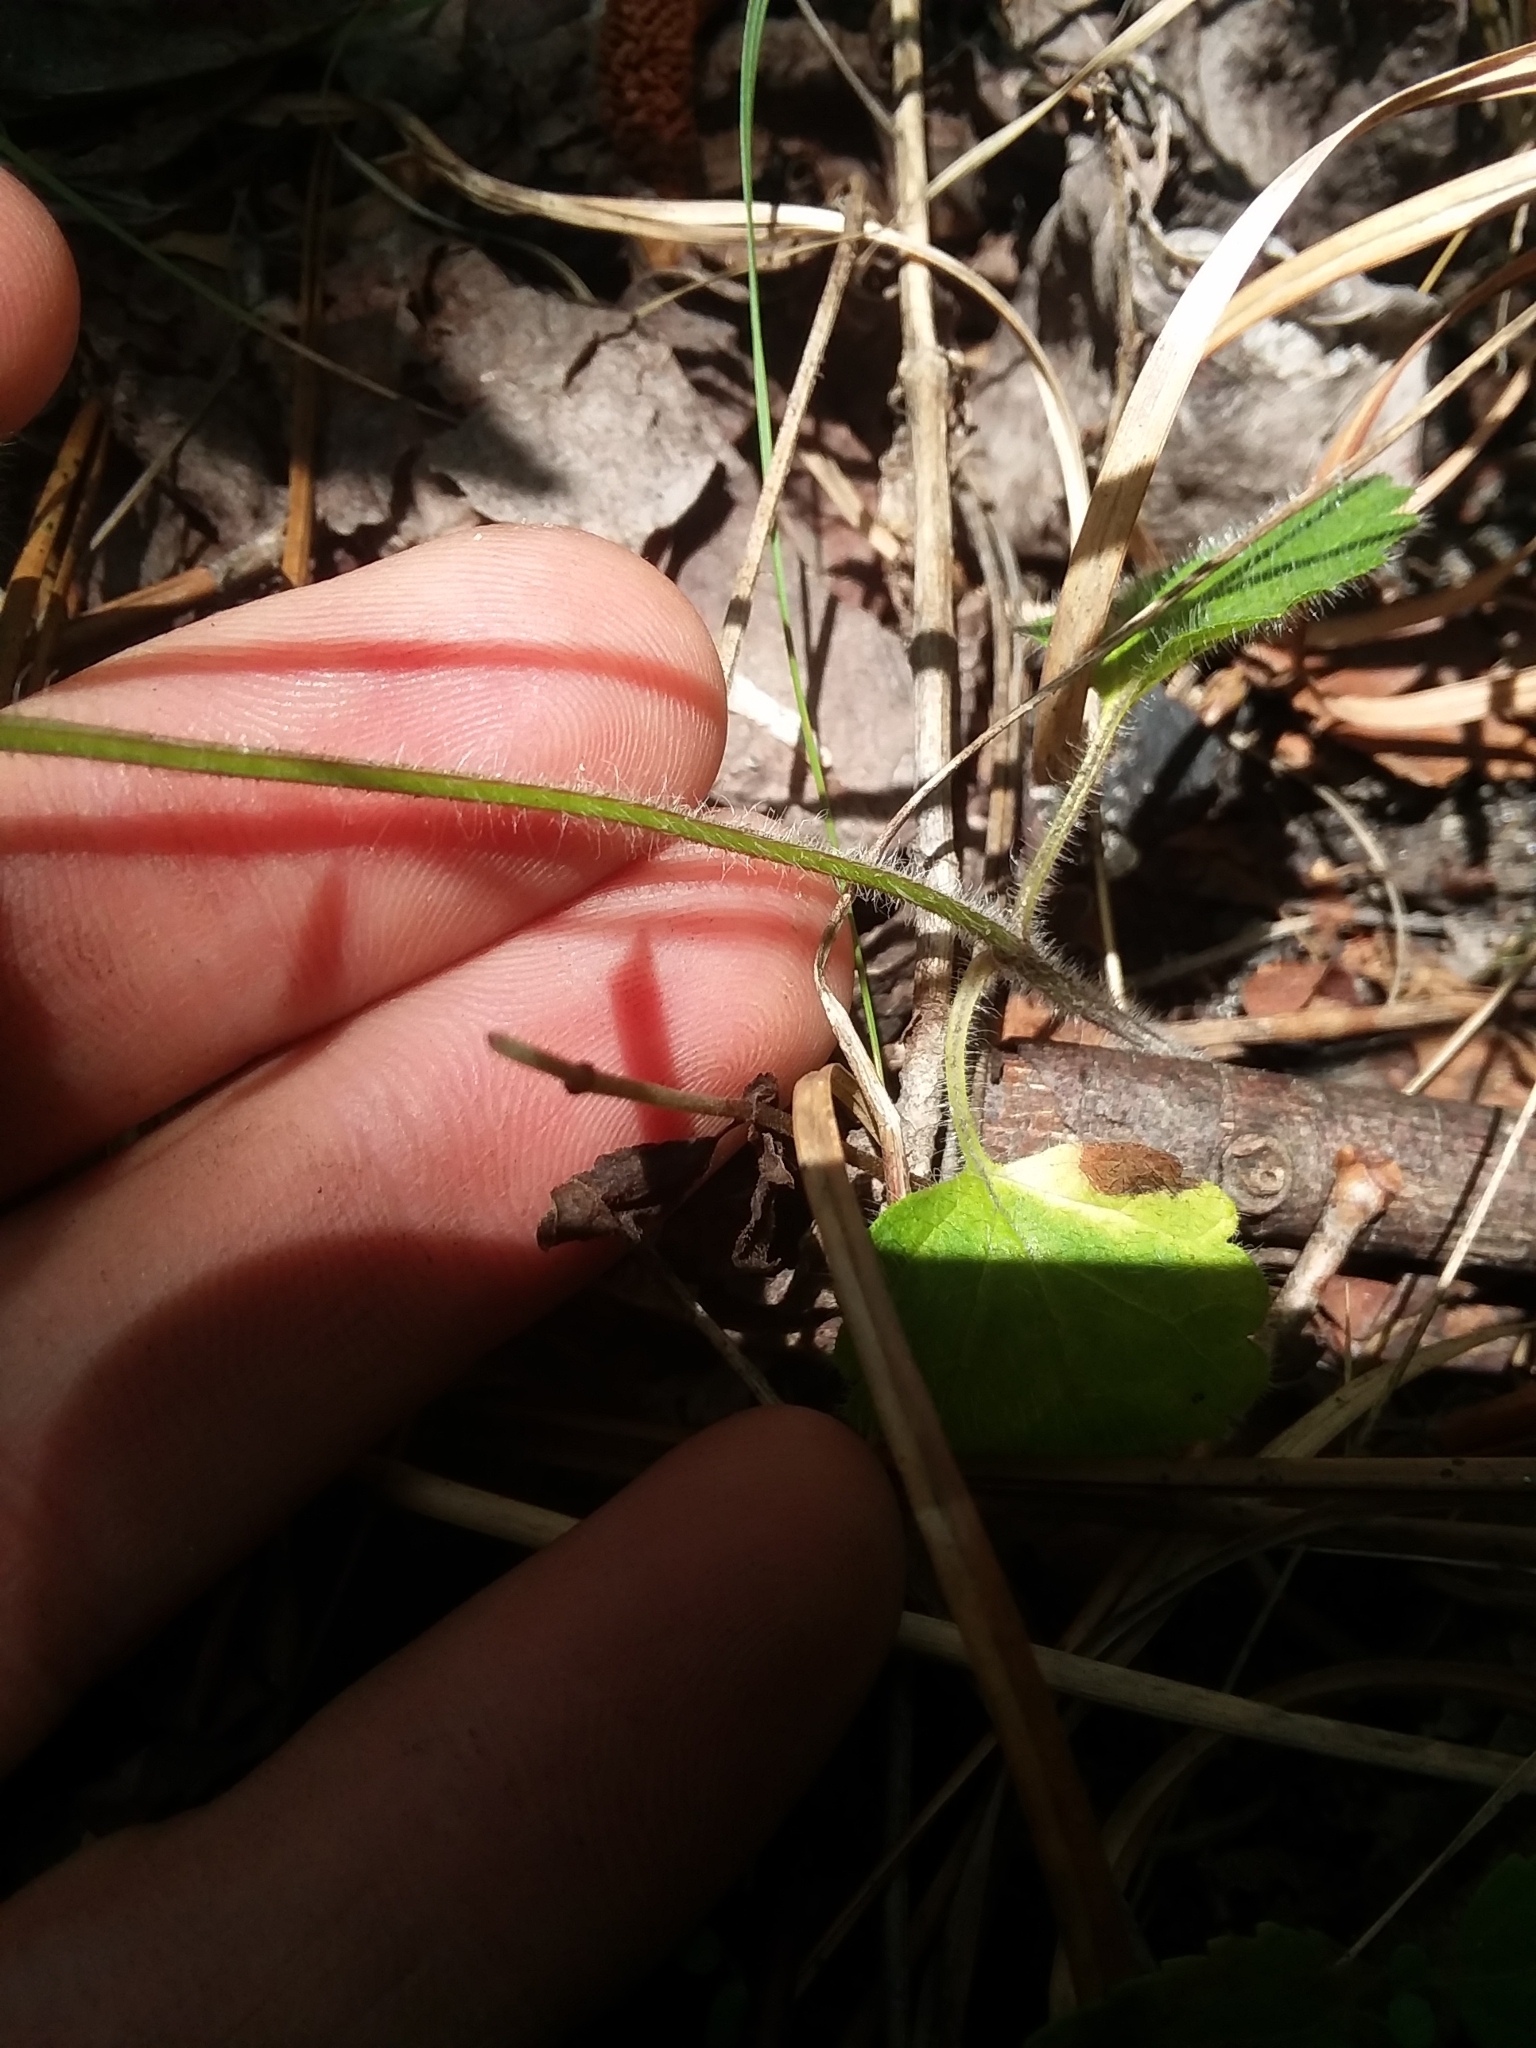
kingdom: Plantae
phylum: Tracheophyta
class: Magnoliopsida
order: Lamiales
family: Lamiaceae
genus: Scutellaria
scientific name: Scutellaria elliptica
